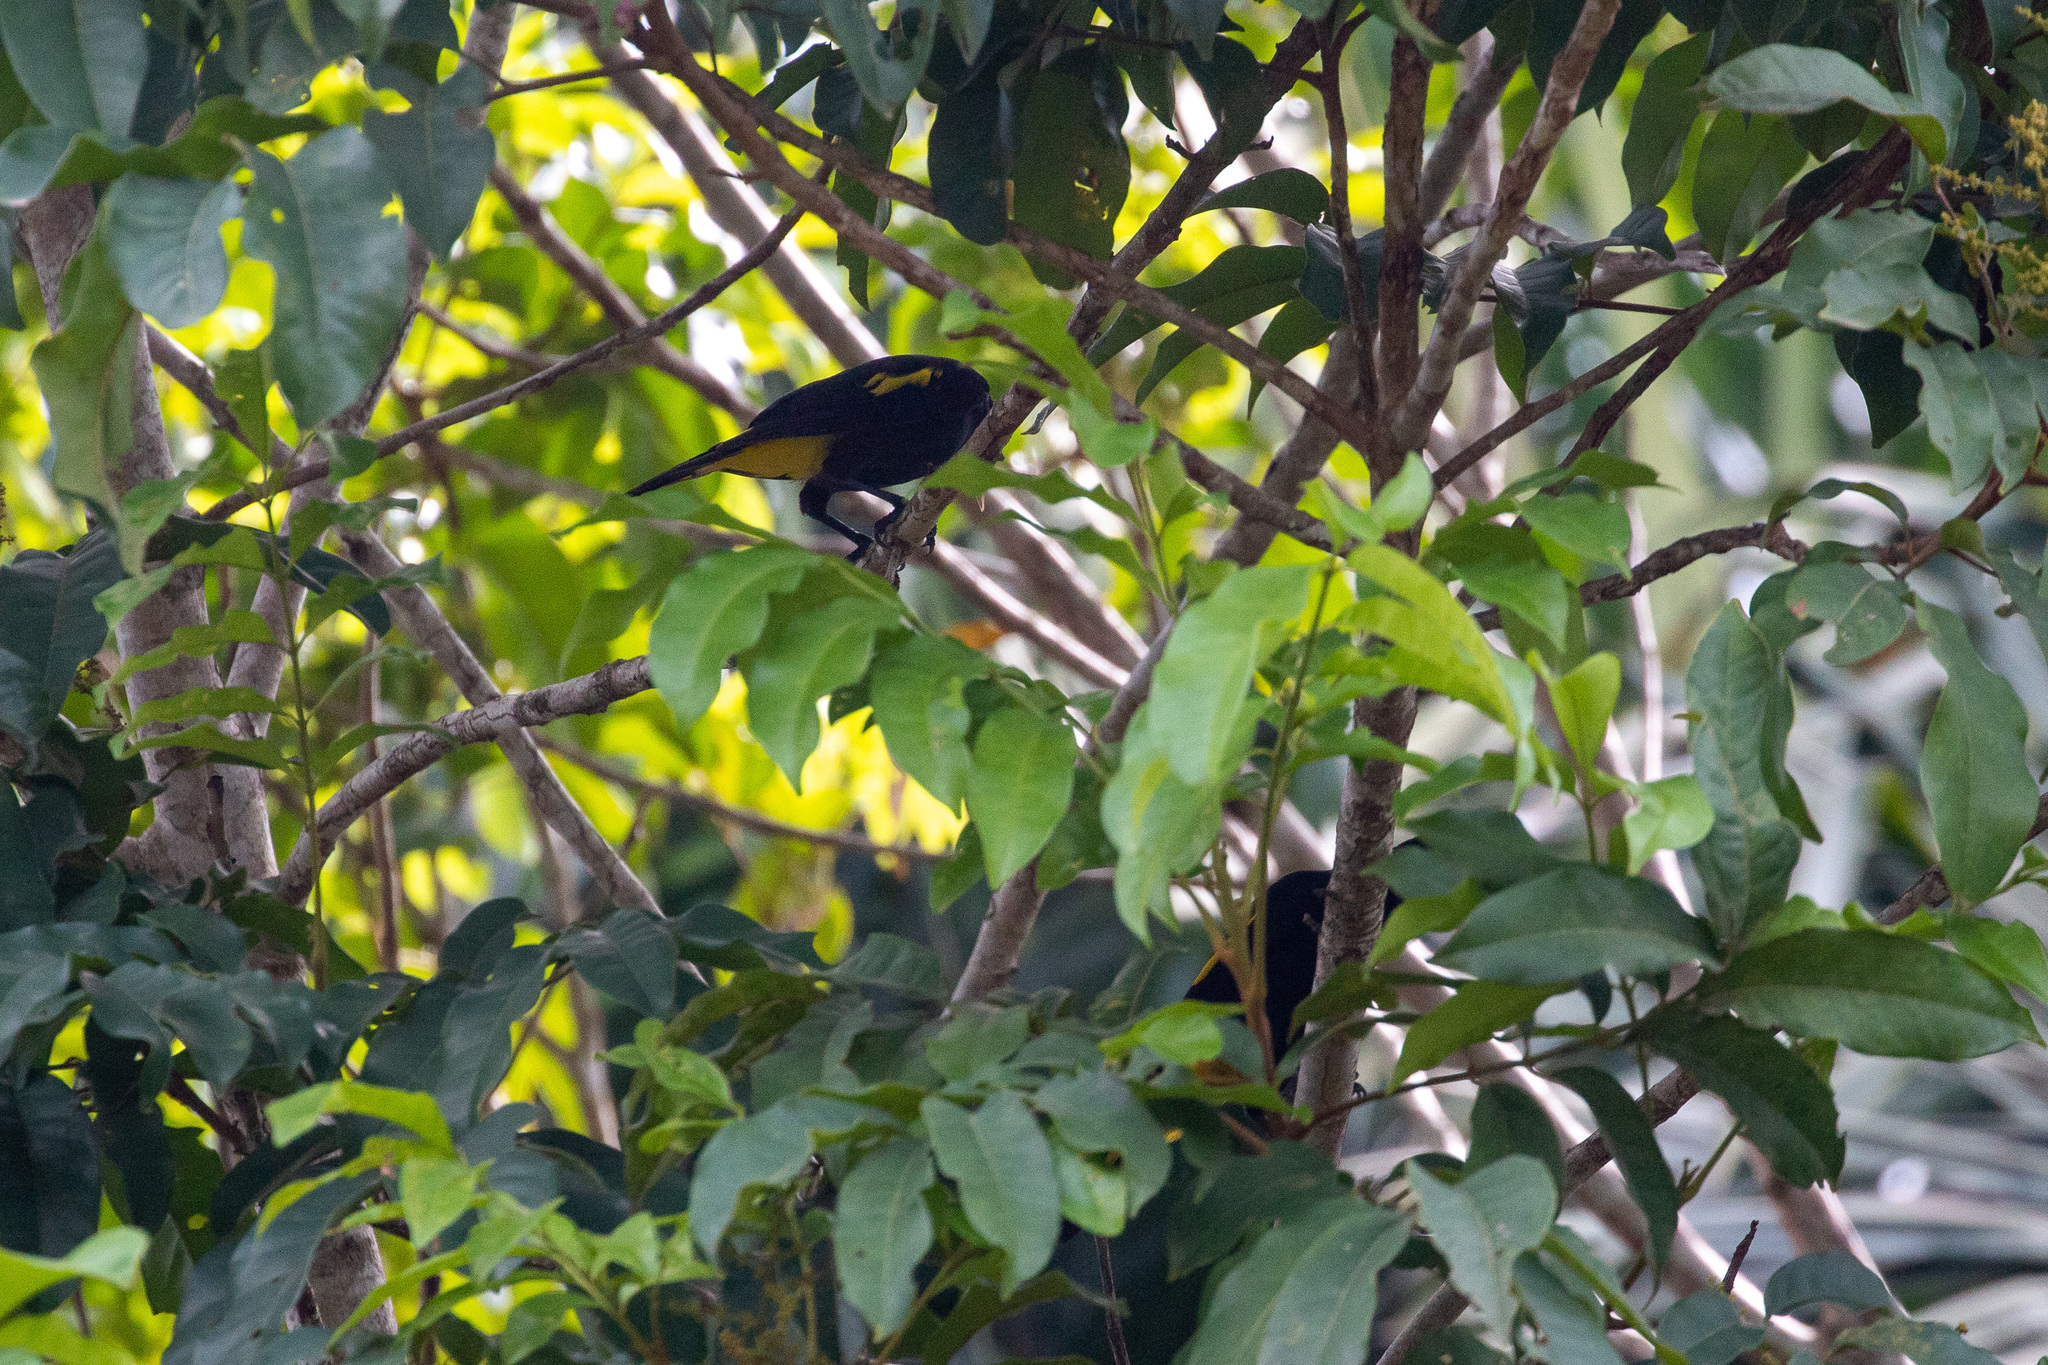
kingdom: Animalia
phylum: Chordata
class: Aves
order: Passeriformes
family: Icteridae
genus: Cacicus
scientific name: Cacicus cela
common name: Yellow-rumped cacique
